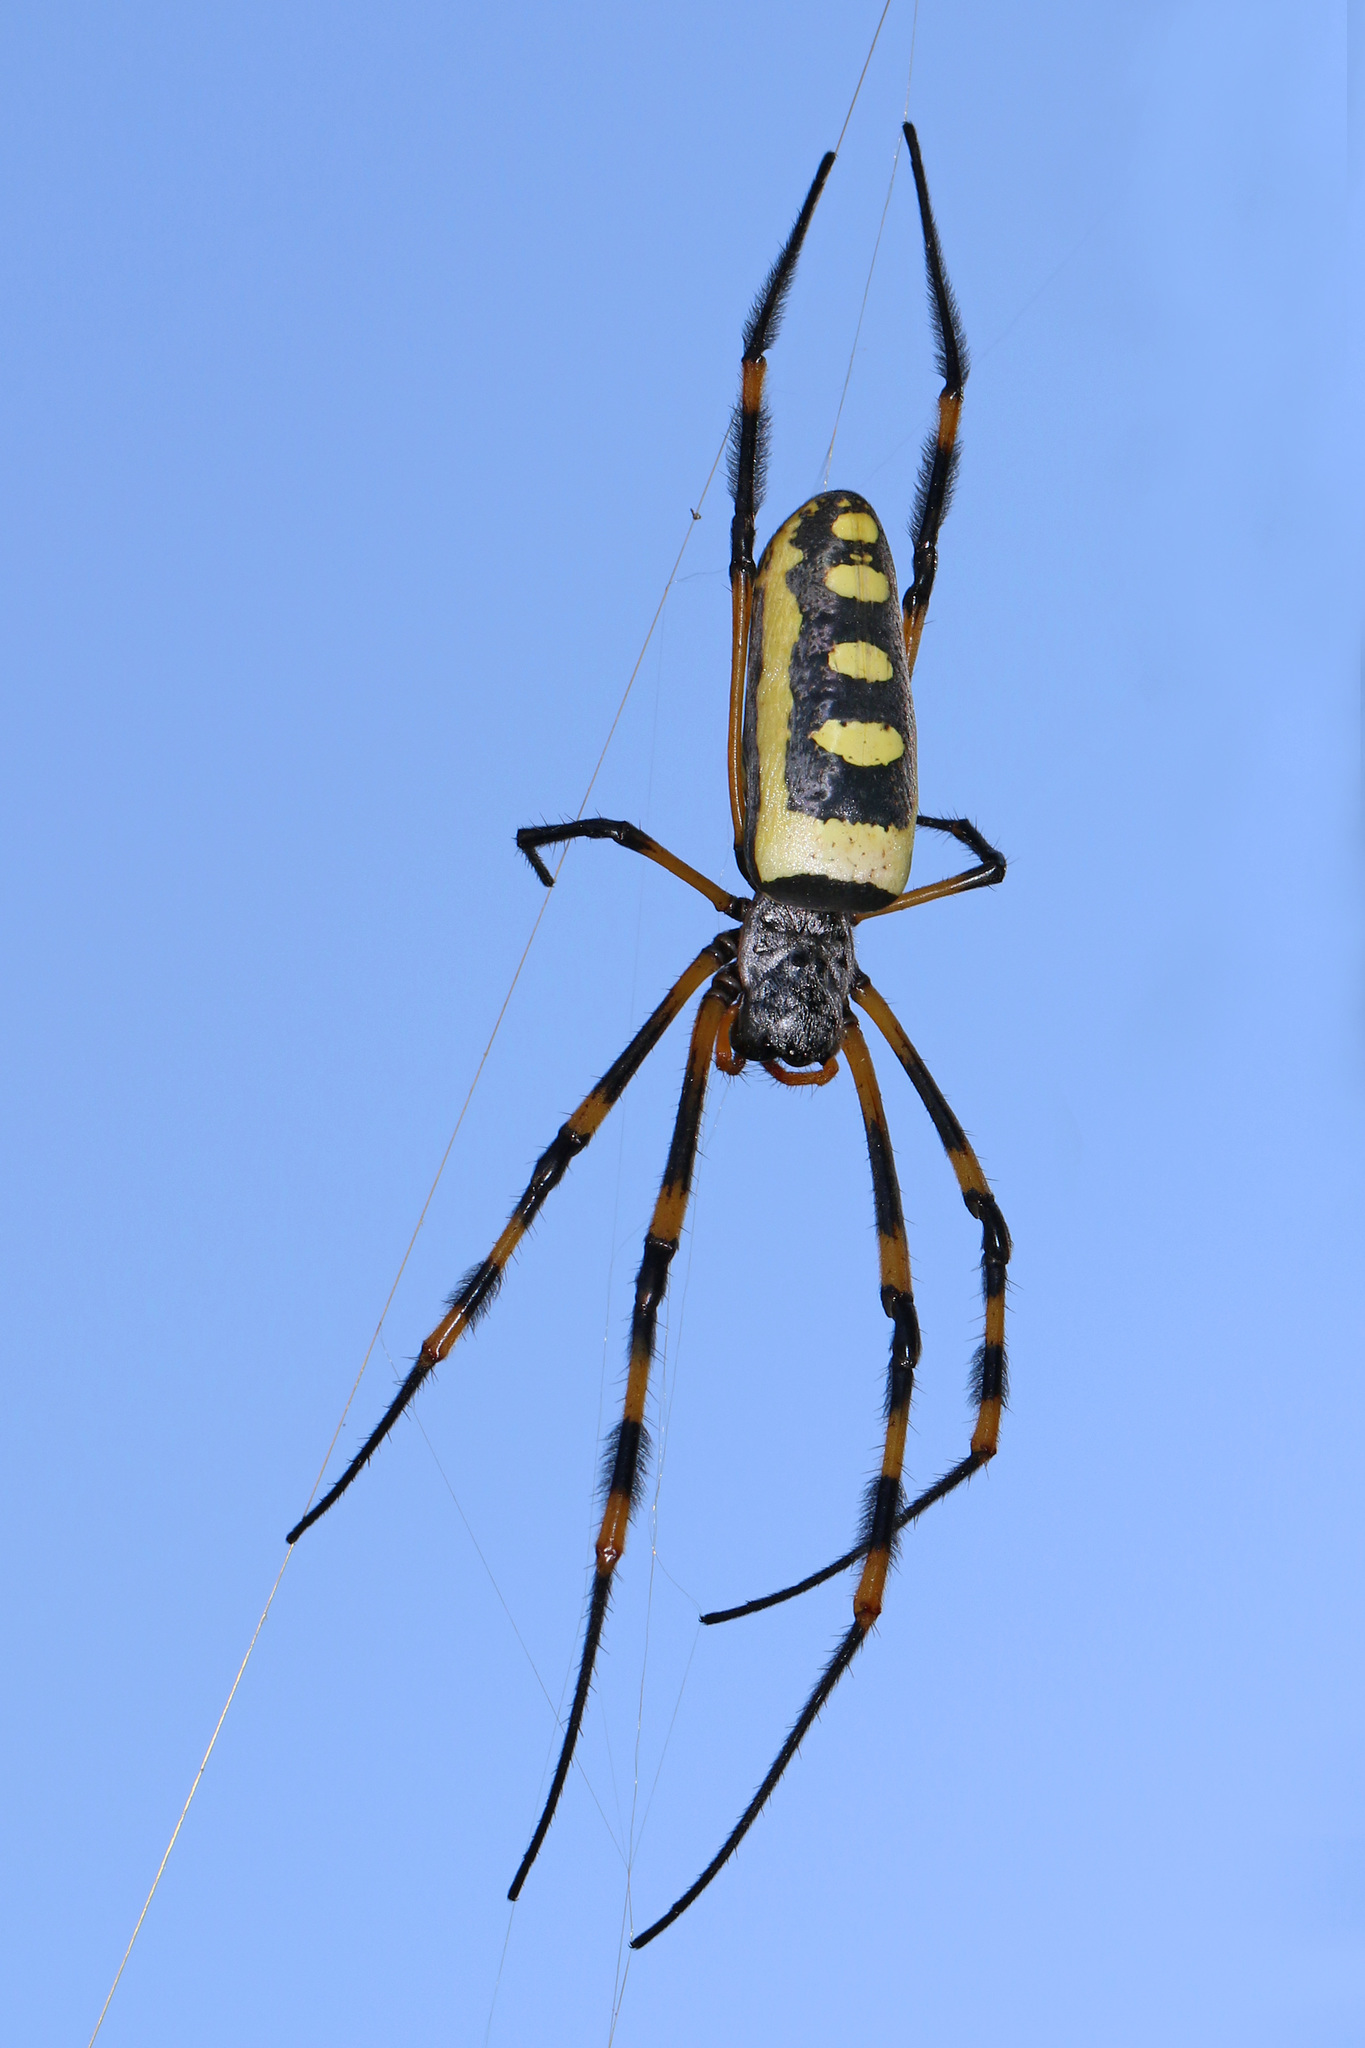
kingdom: Animalia
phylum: Arthropoda
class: Arachnida
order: Araneae
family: Araneidae
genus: Trichonephila
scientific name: Trichonephila senegalensis
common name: Banded golden orb weaver
